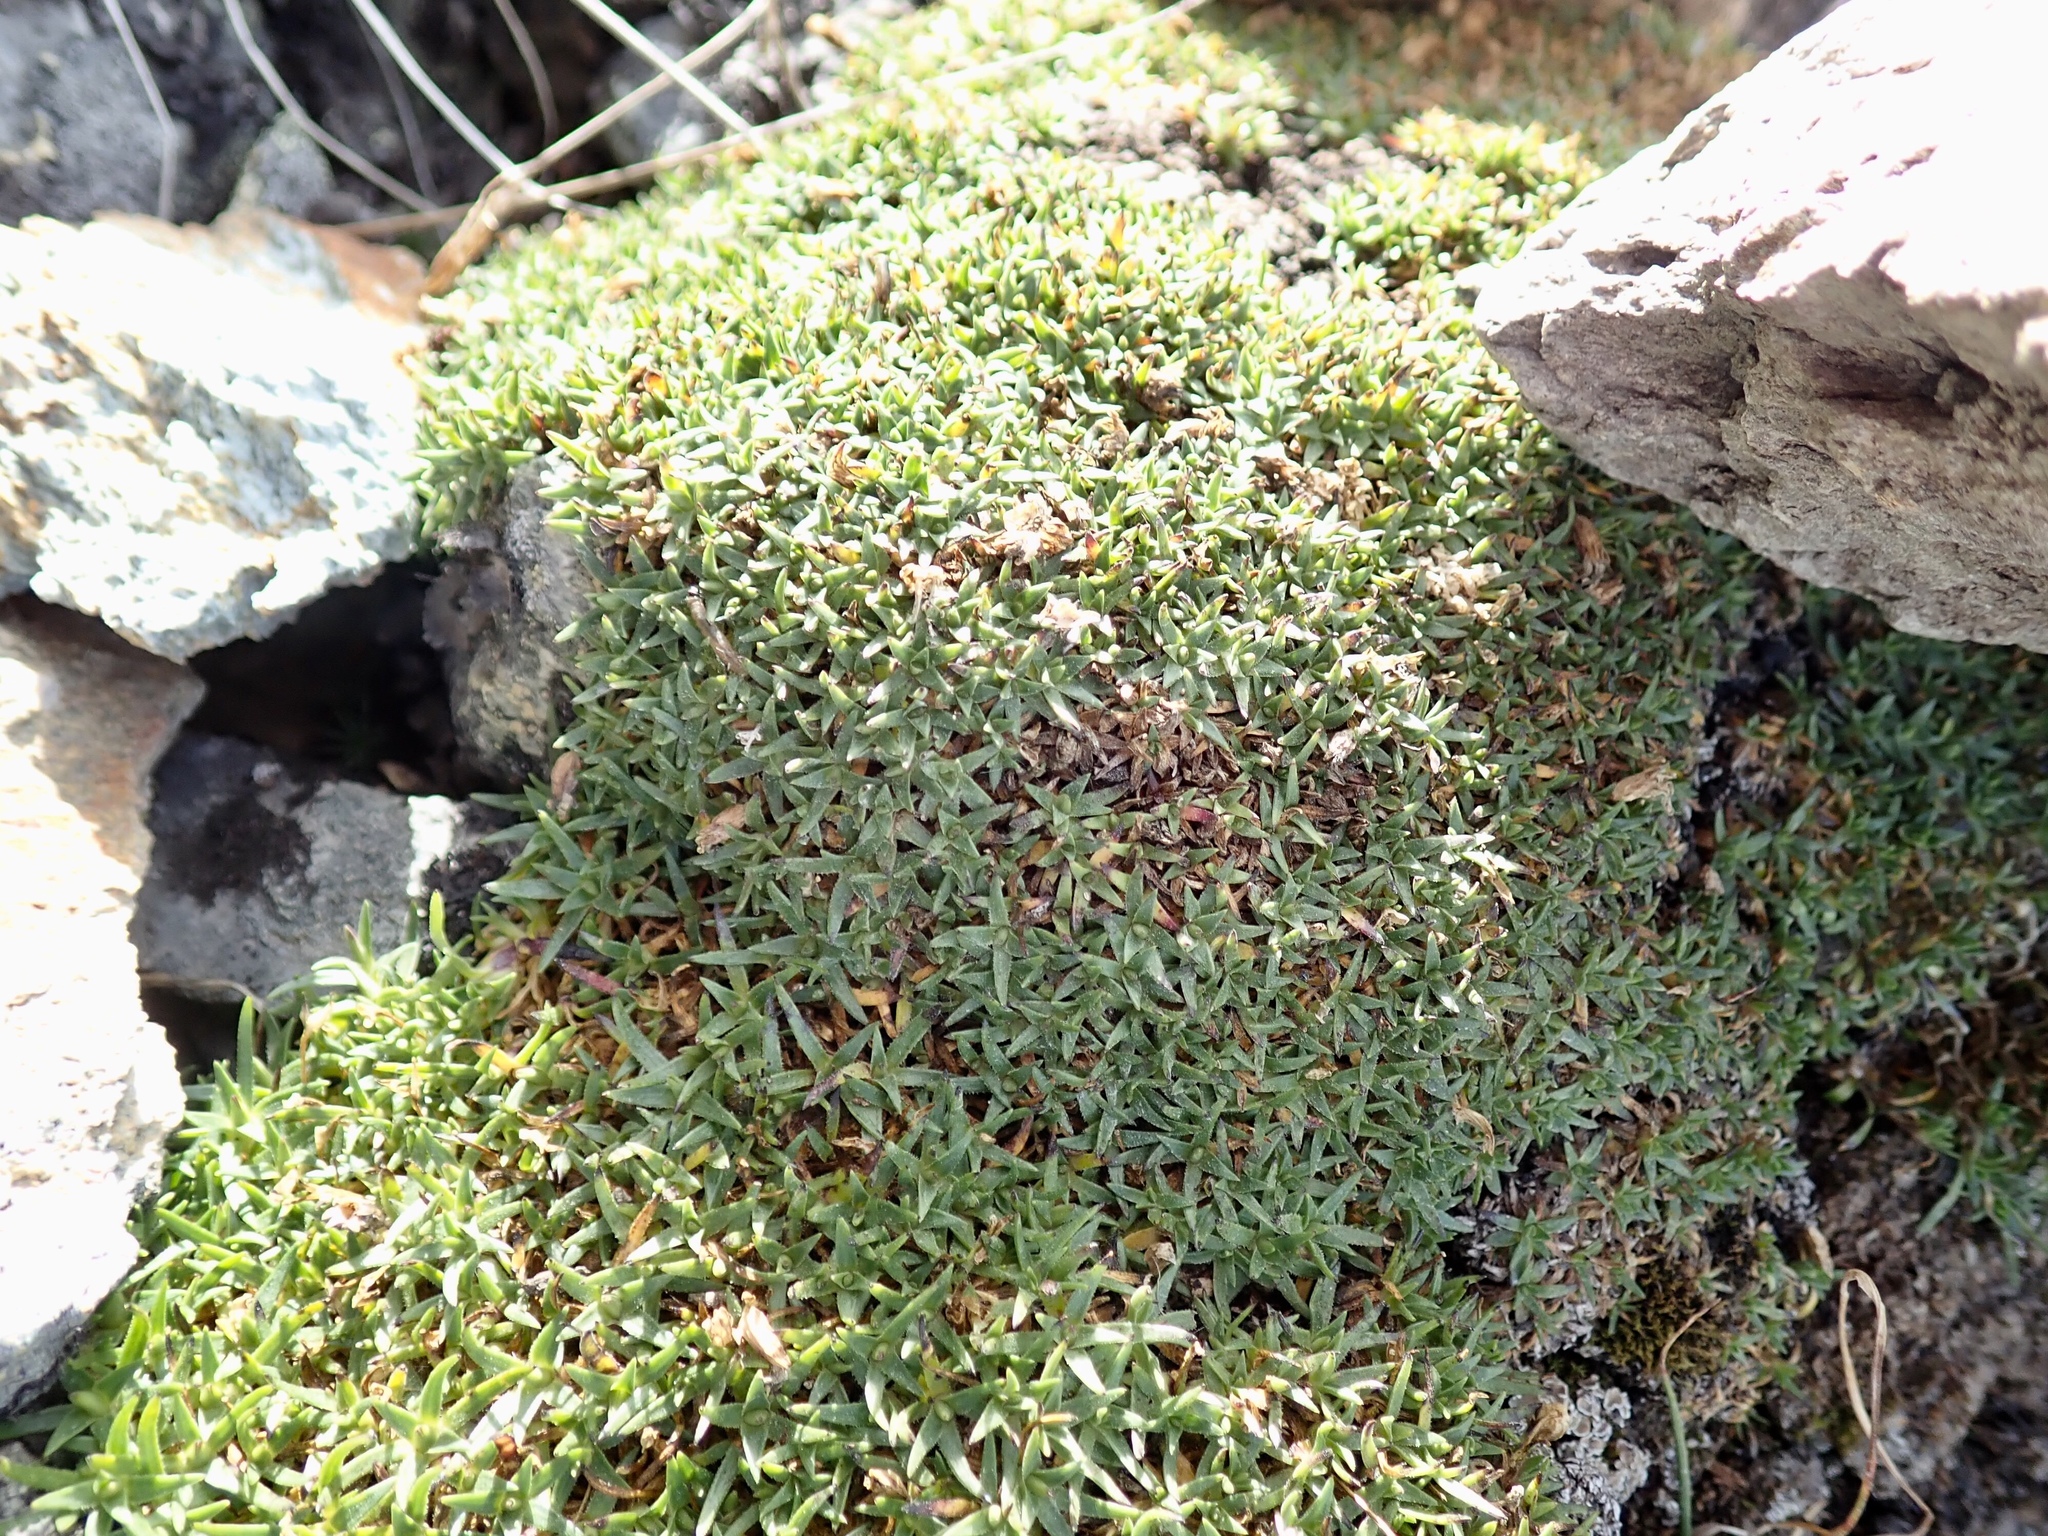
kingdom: Plantae
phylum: Tracheophyta
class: Magnoliopsida
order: Caryophyllales
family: Caryophyllaceae
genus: Silene
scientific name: Silene acaulis
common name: Moss campion
